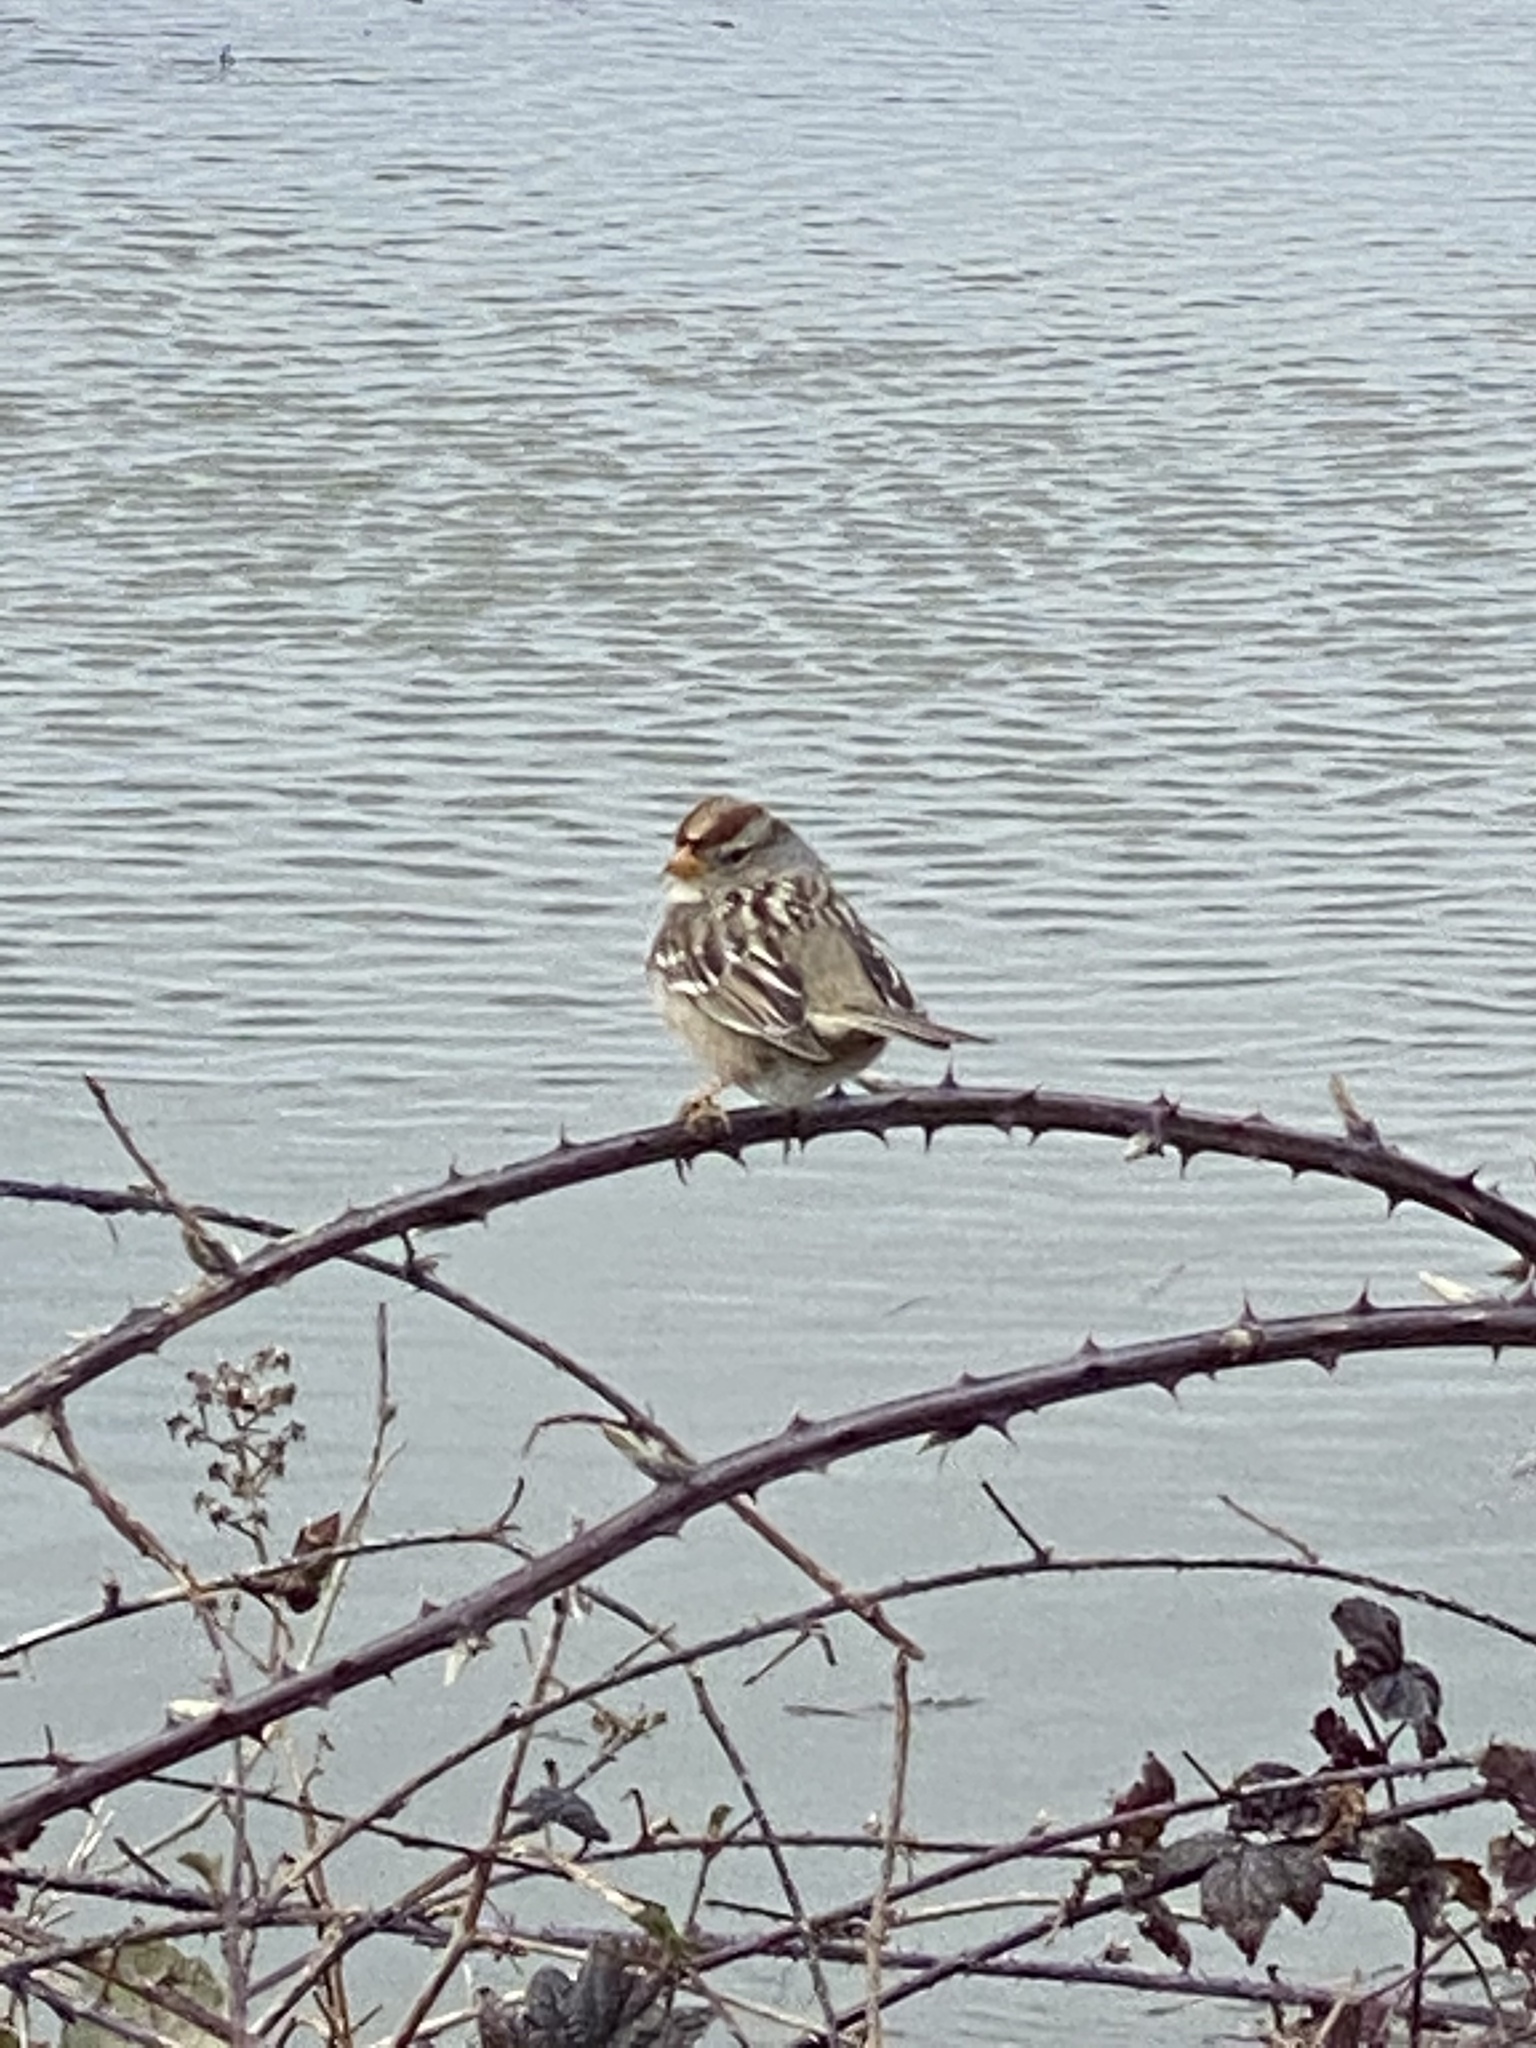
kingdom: Animalia
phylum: Chordata
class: Aves
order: Passeriformes
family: Passerellidae
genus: Zonotrichia
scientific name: Zonotrichia leucophrys
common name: White-crowned sparrow
